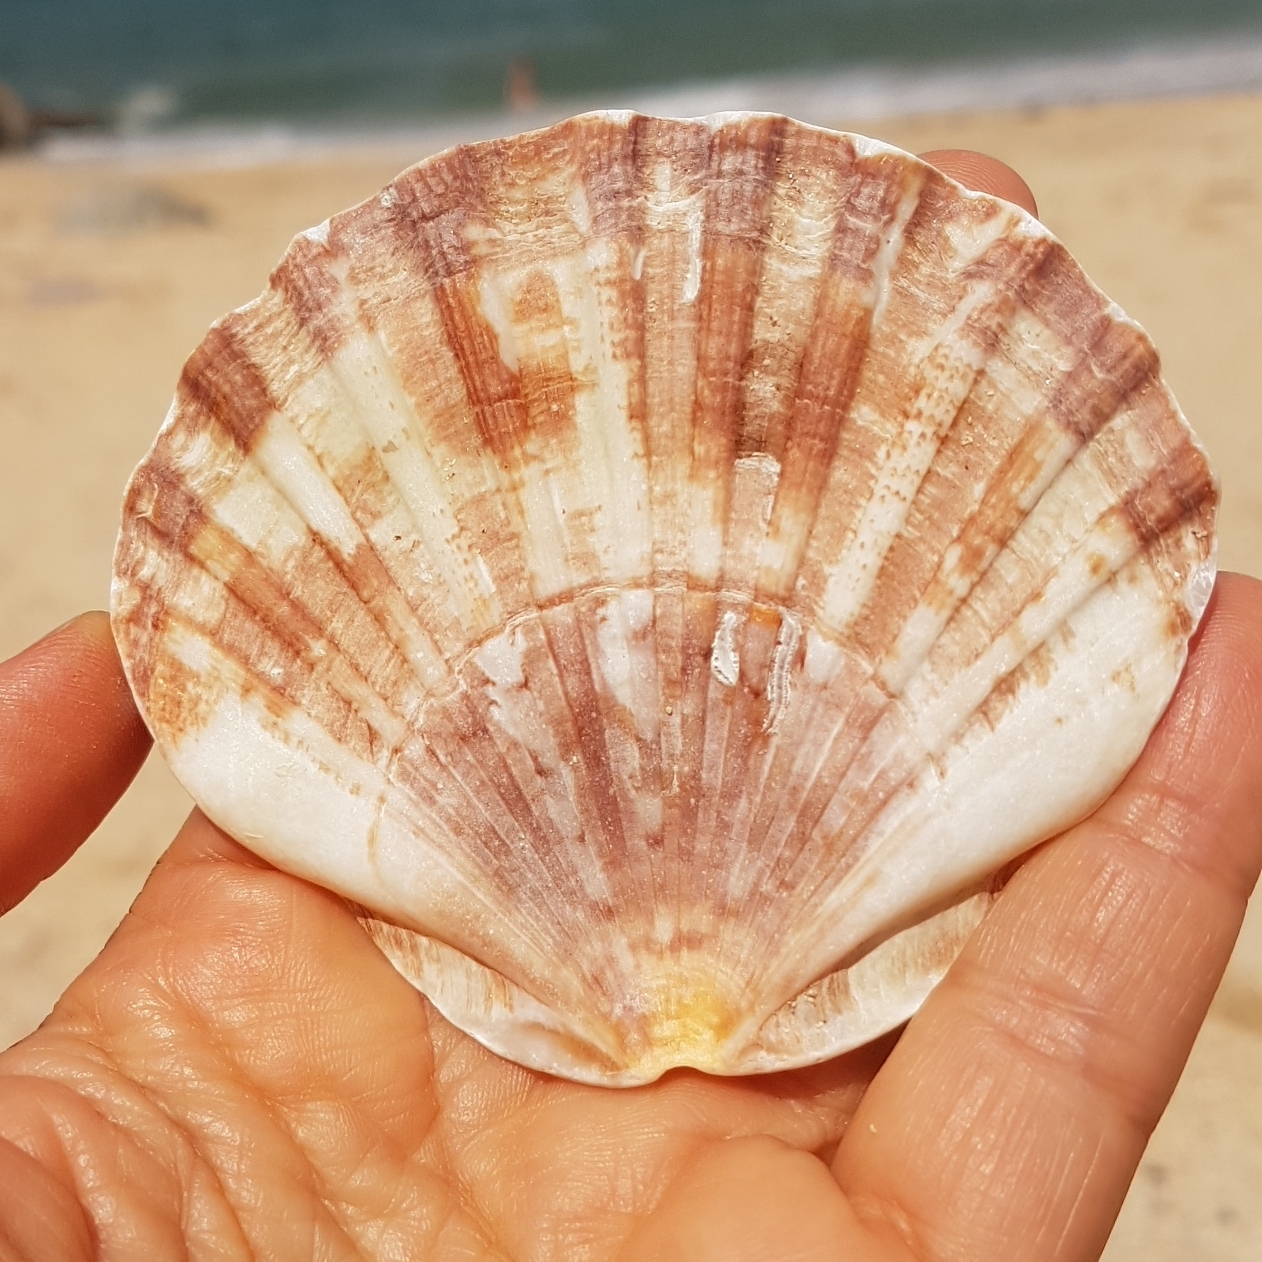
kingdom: Animalia
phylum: Mollusca
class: Bivalvia
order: Pectinida
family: Pectinidae
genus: Pecten
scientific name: Pecten maximus
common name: Great scallop
